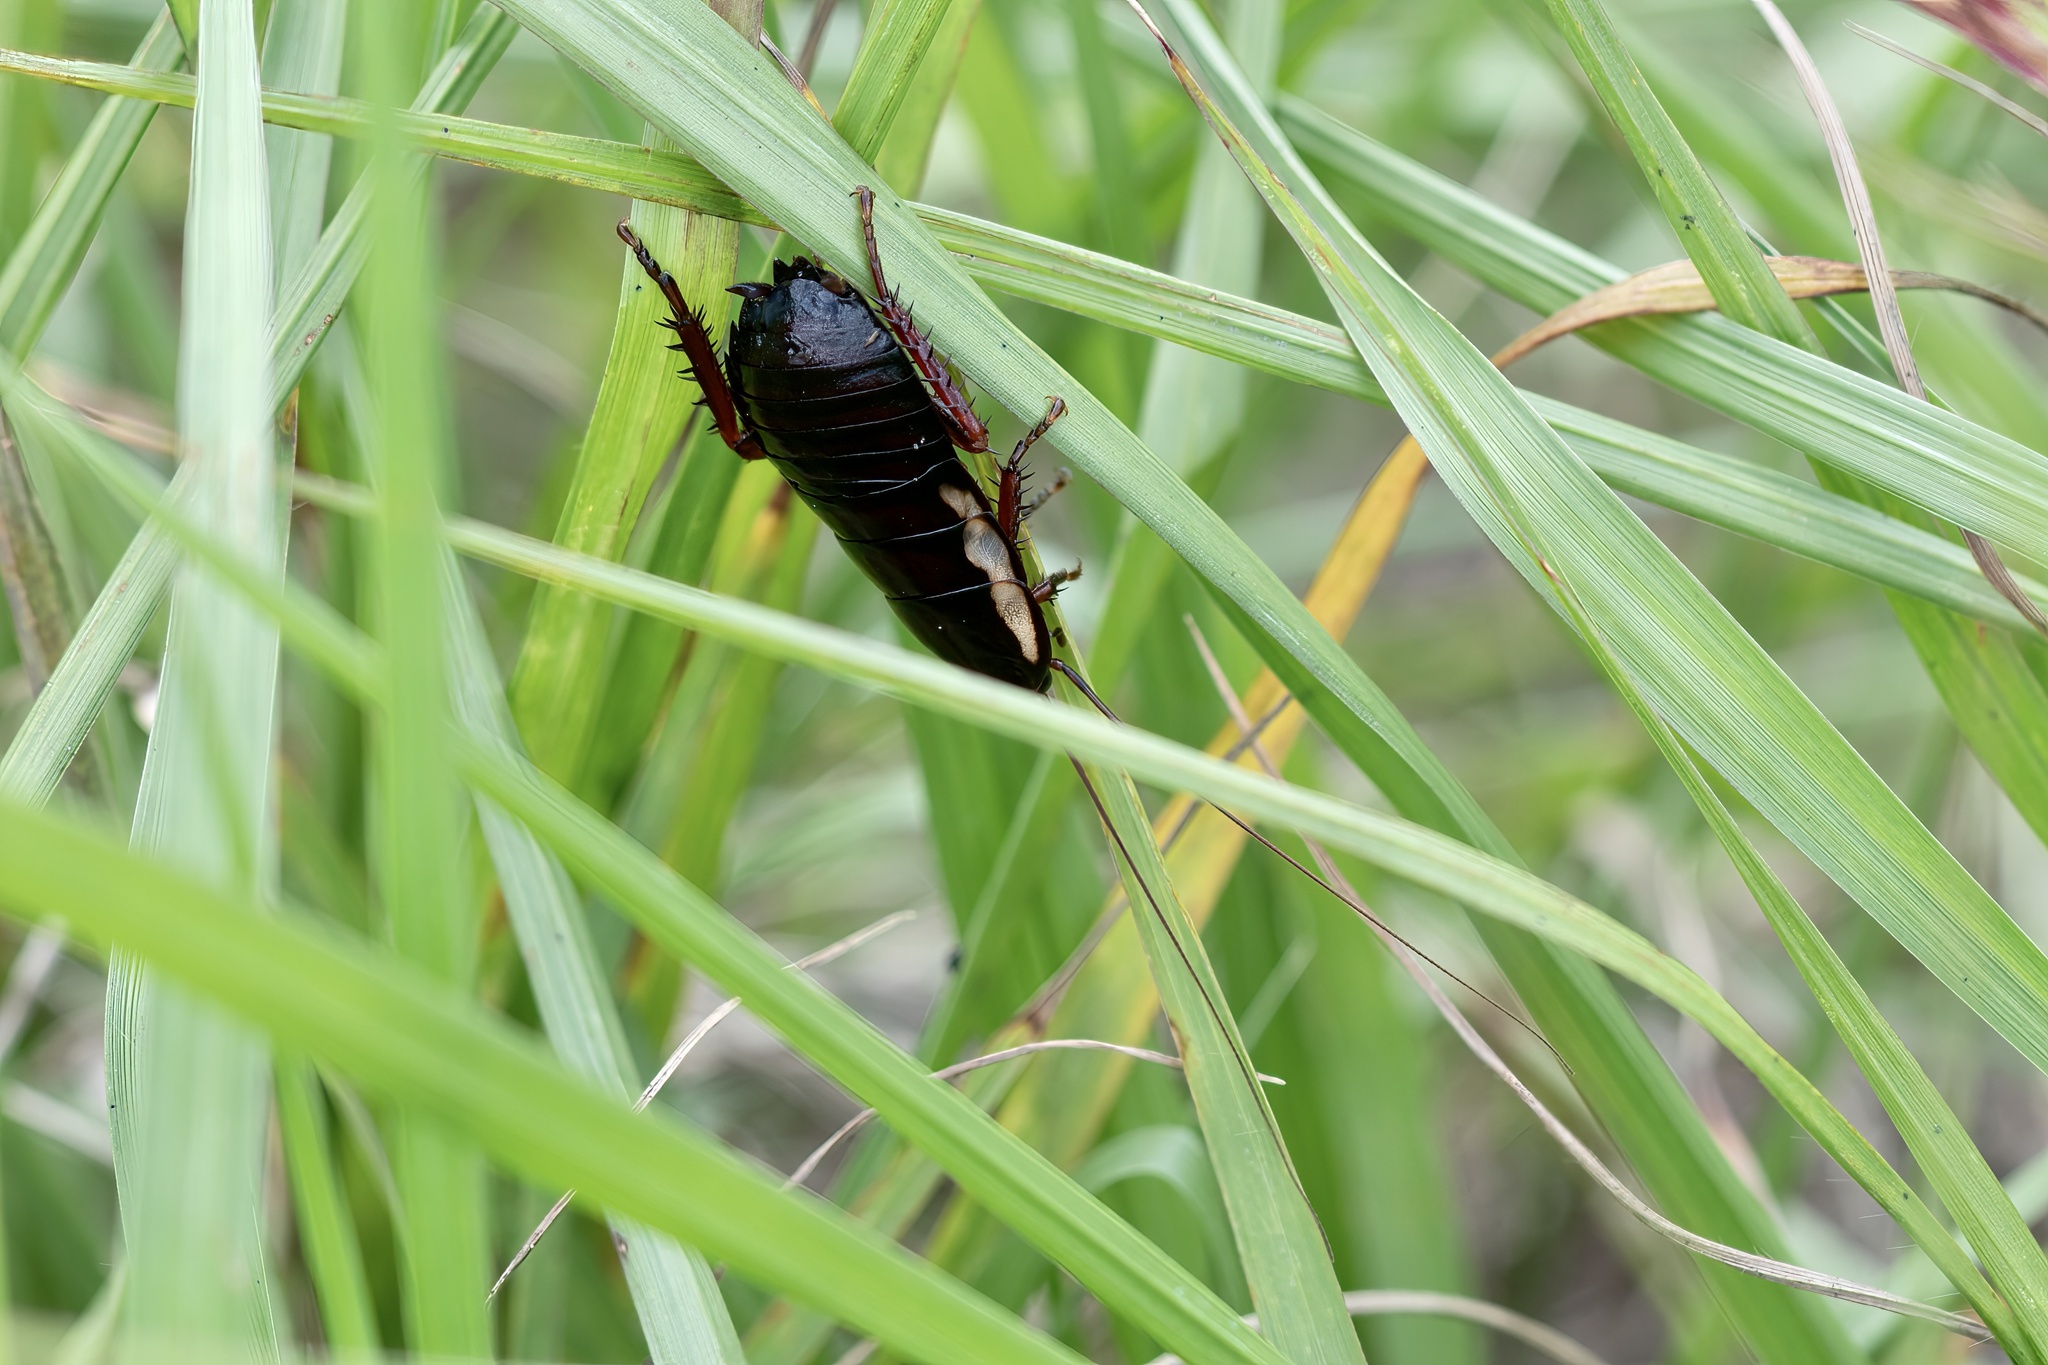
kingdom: Animalia
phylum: Arthropoda
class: Insecta
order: Blattodea
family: Blattidae
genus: Eurycotis
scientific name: Eurycotis floridana
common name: Florida cockroach
